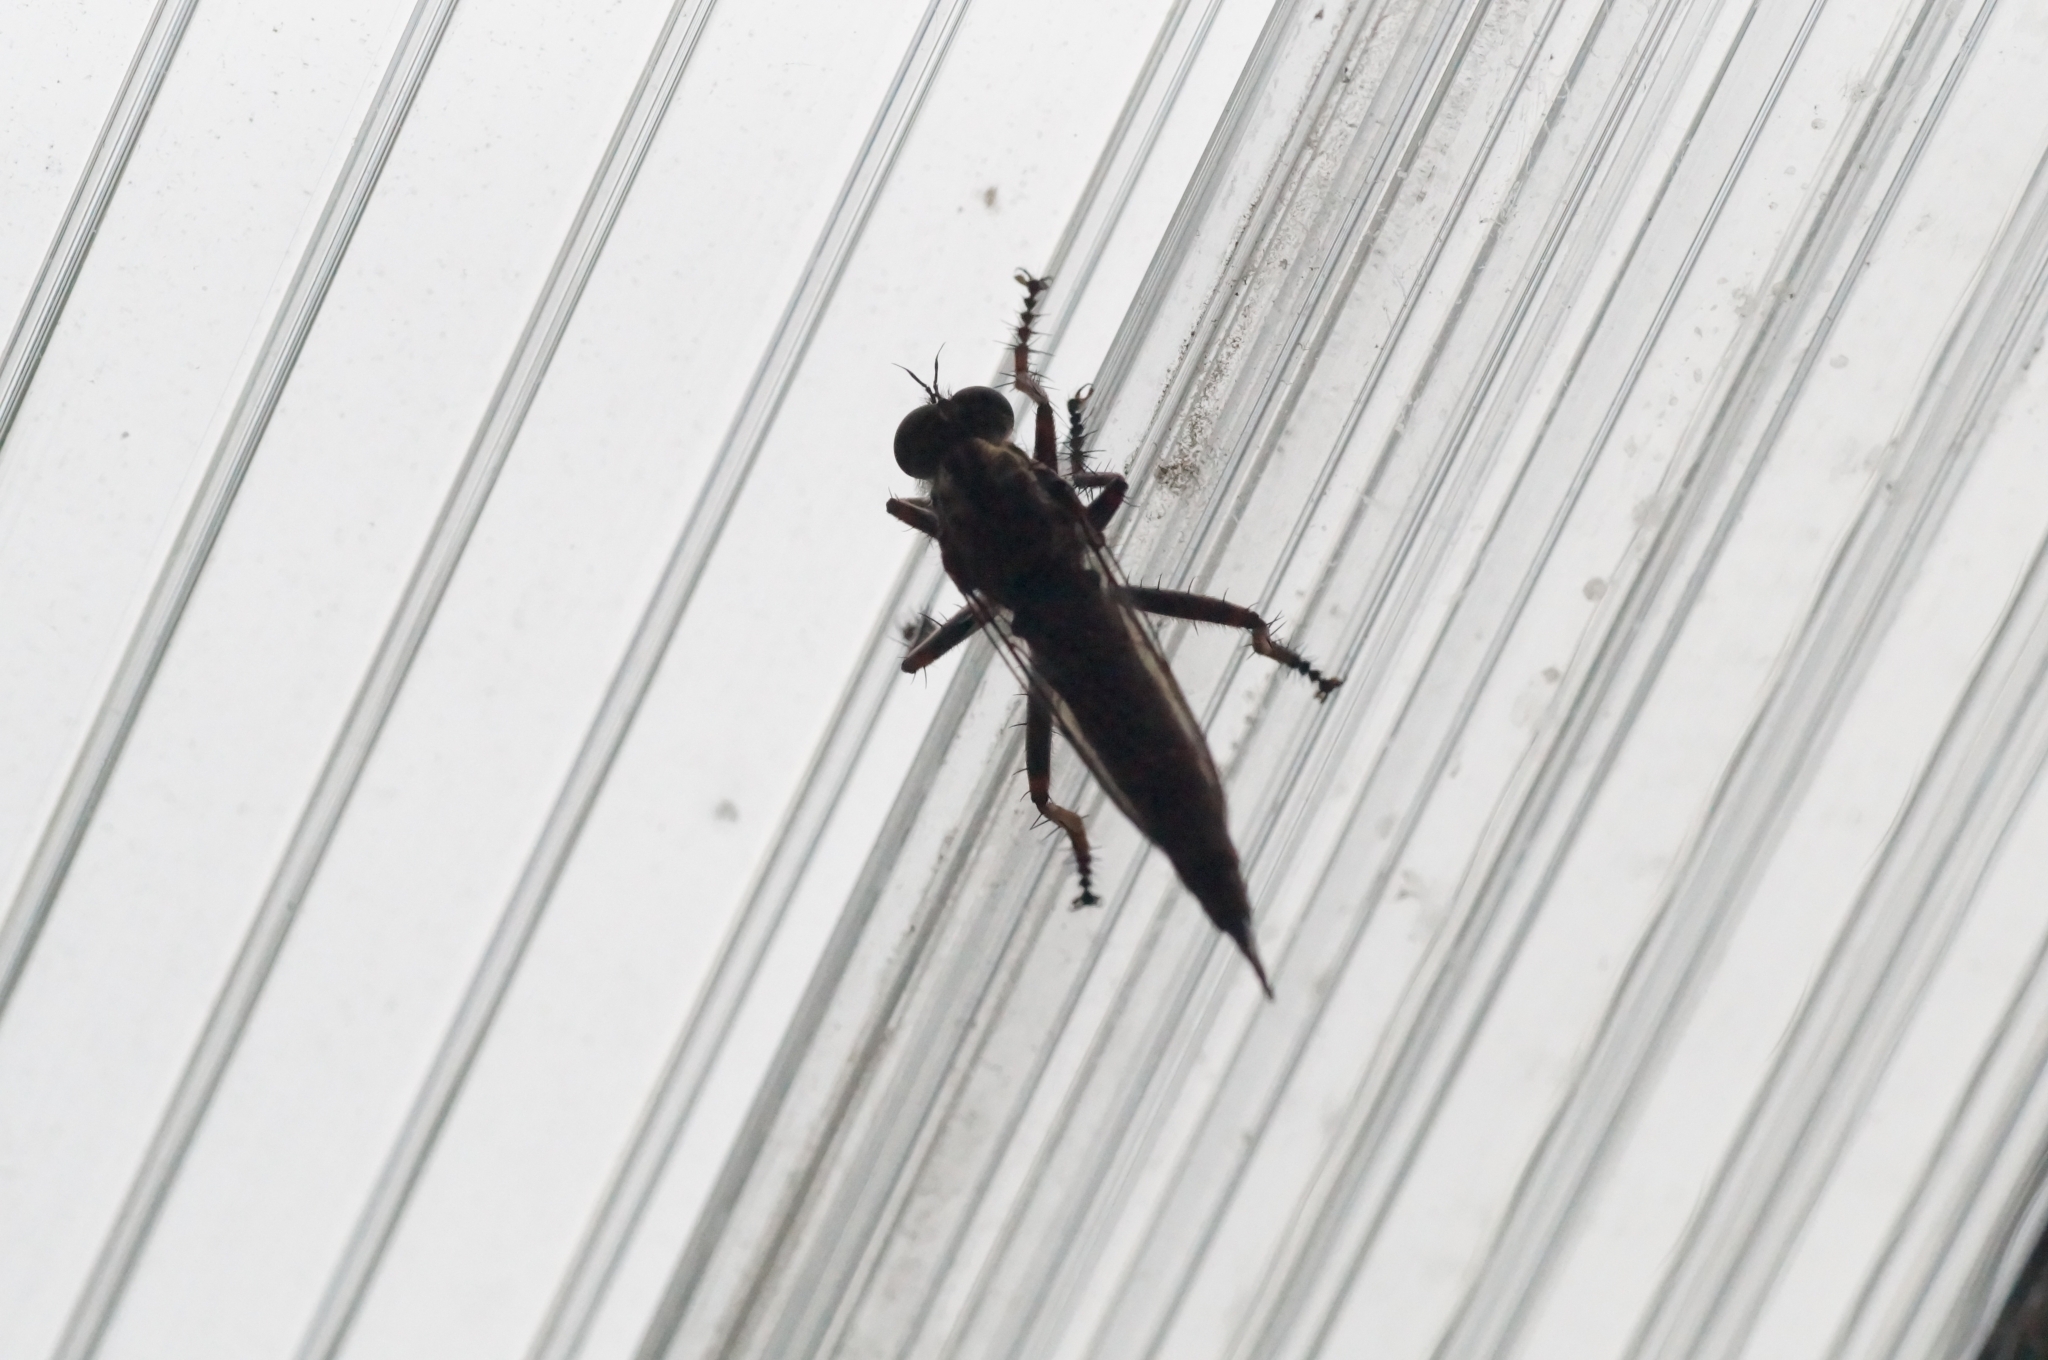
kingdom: Animalia
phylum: Arthropoda
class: Insecta
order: Diptera
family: Asilidae
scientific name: Asilidae
